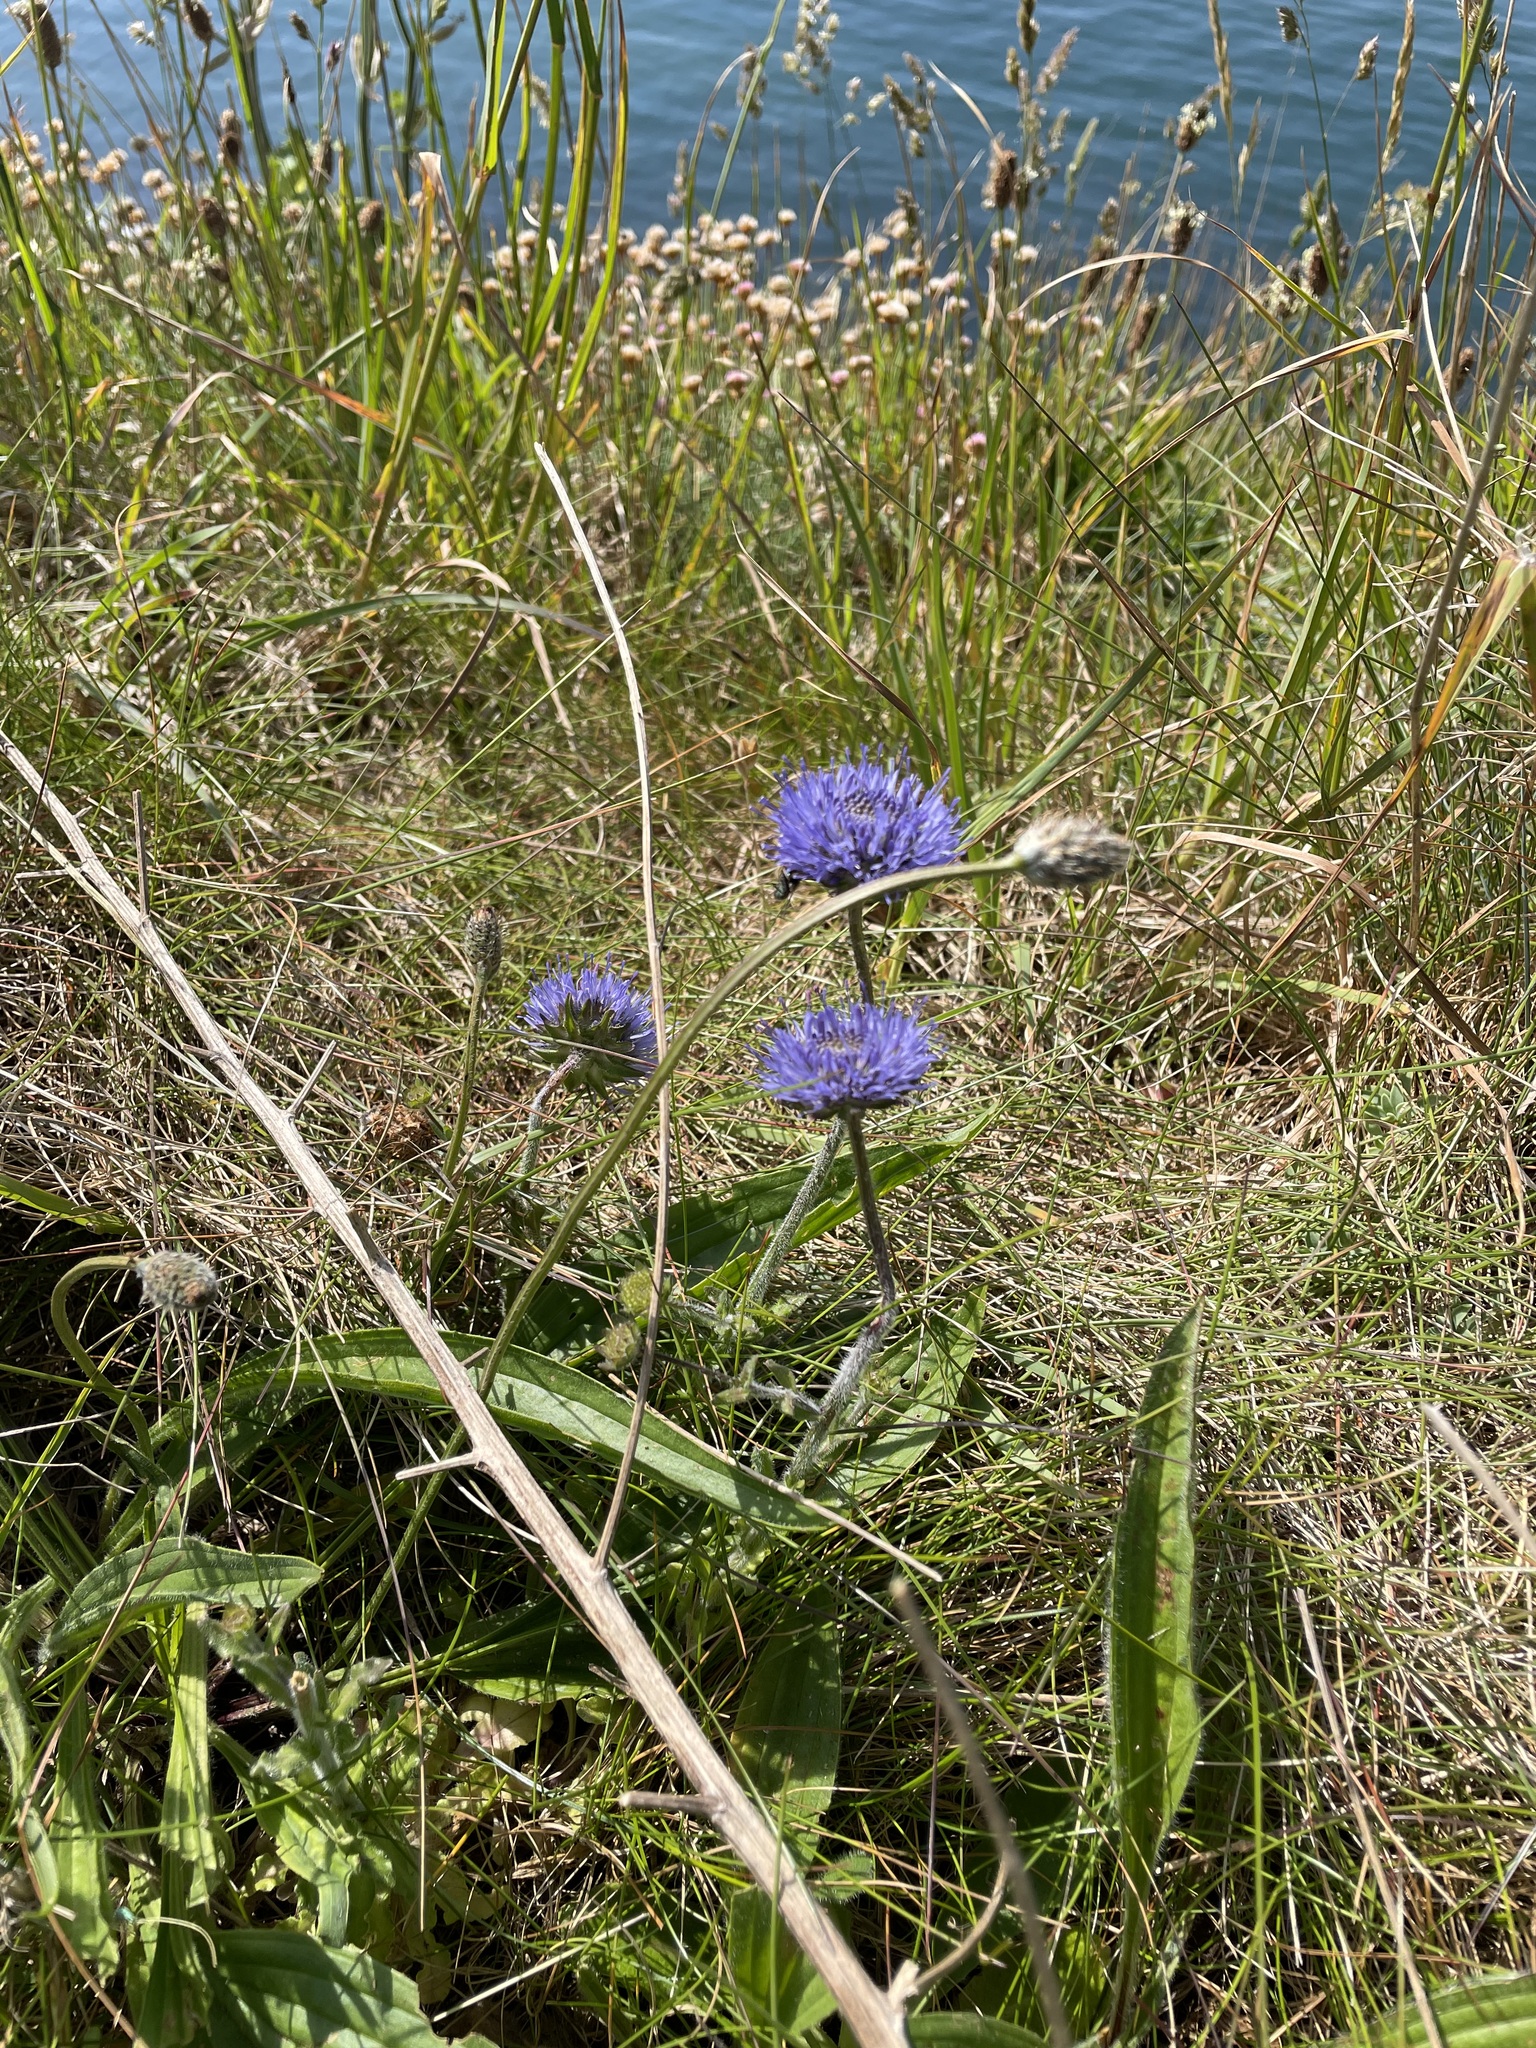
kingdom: Plantae
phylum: Tracheophyta
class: Magnoliopsida
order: Asterales
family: Campanulaceae
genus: Jasione
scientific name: Jasione montana
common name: Sheep's-bit
